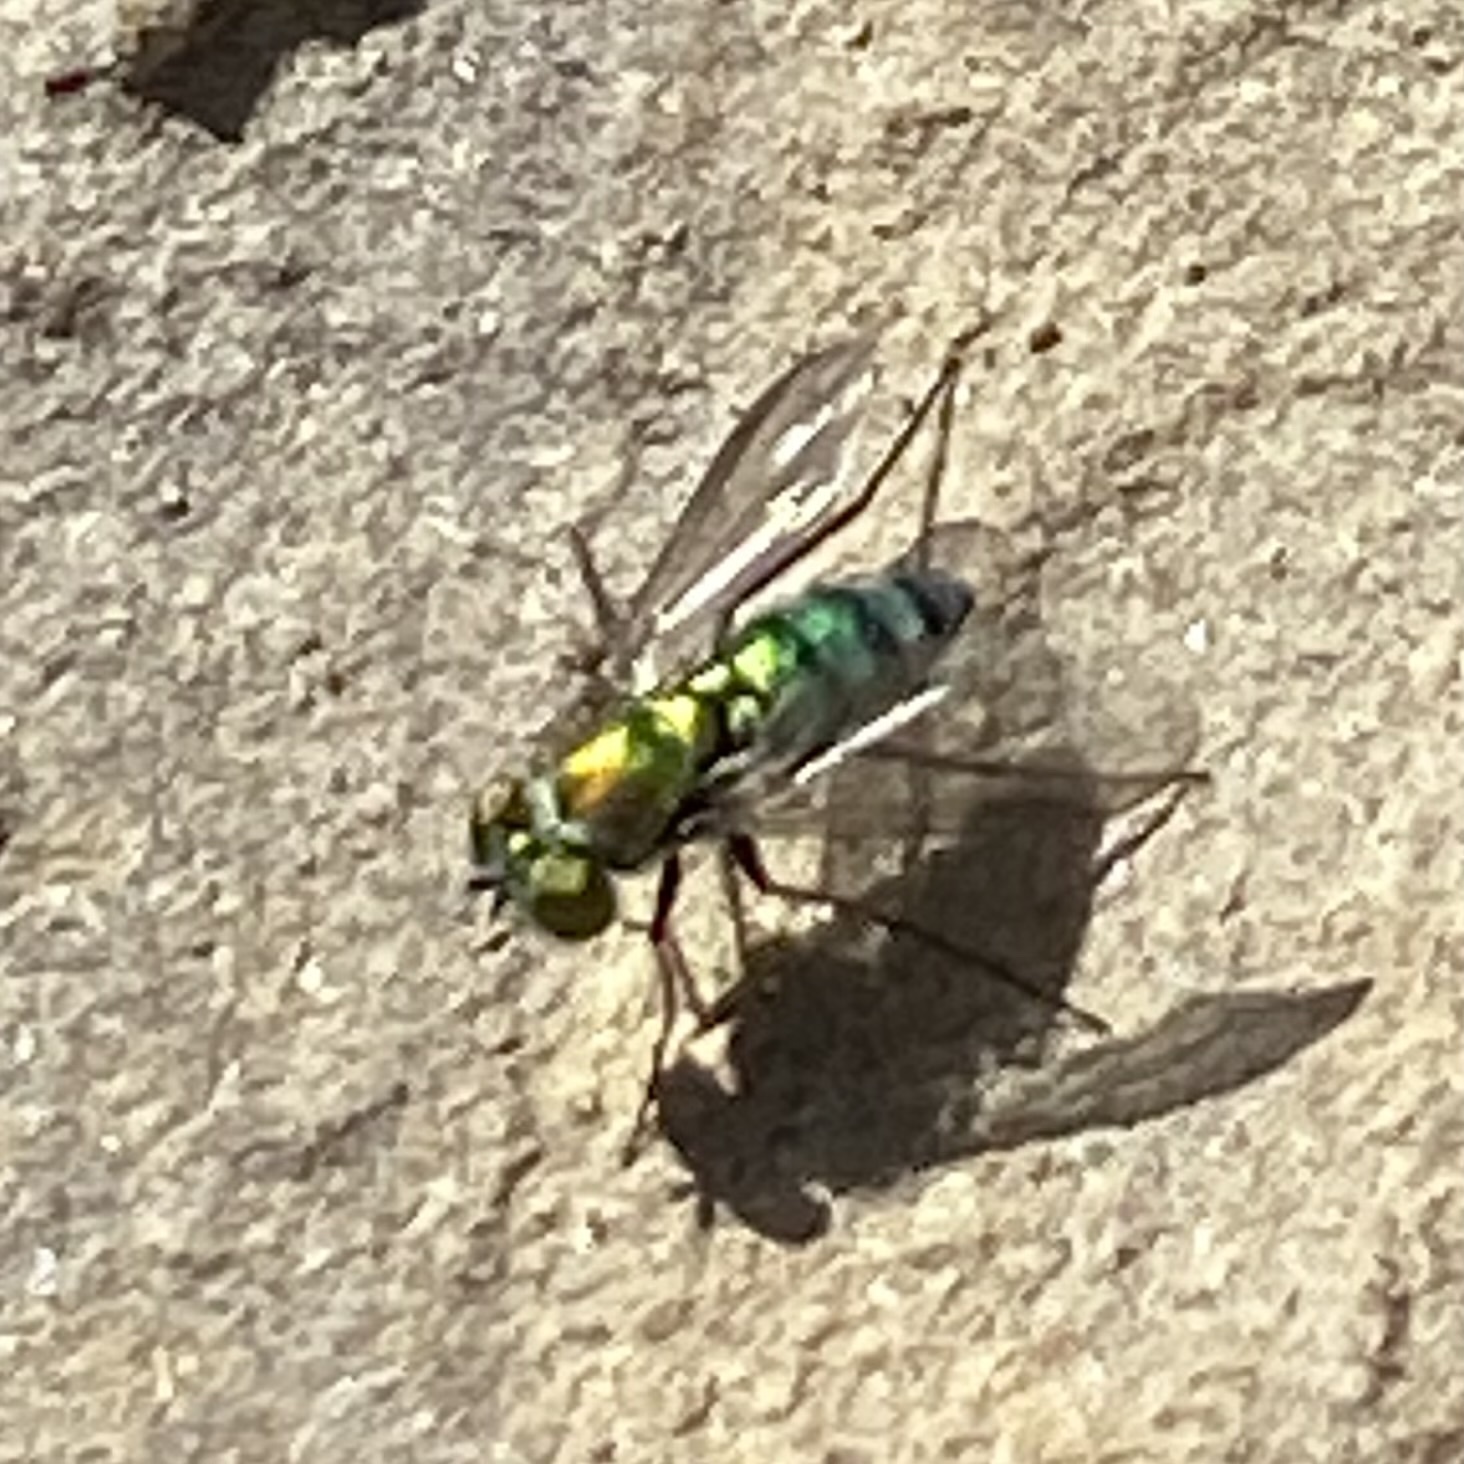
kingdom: Animalia
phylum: Arthropoda
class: Insecta
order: Diptera
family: Dolichopodidae
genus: Condylostylus
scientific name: Condylostylus longicornis
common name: Long-legged fly
